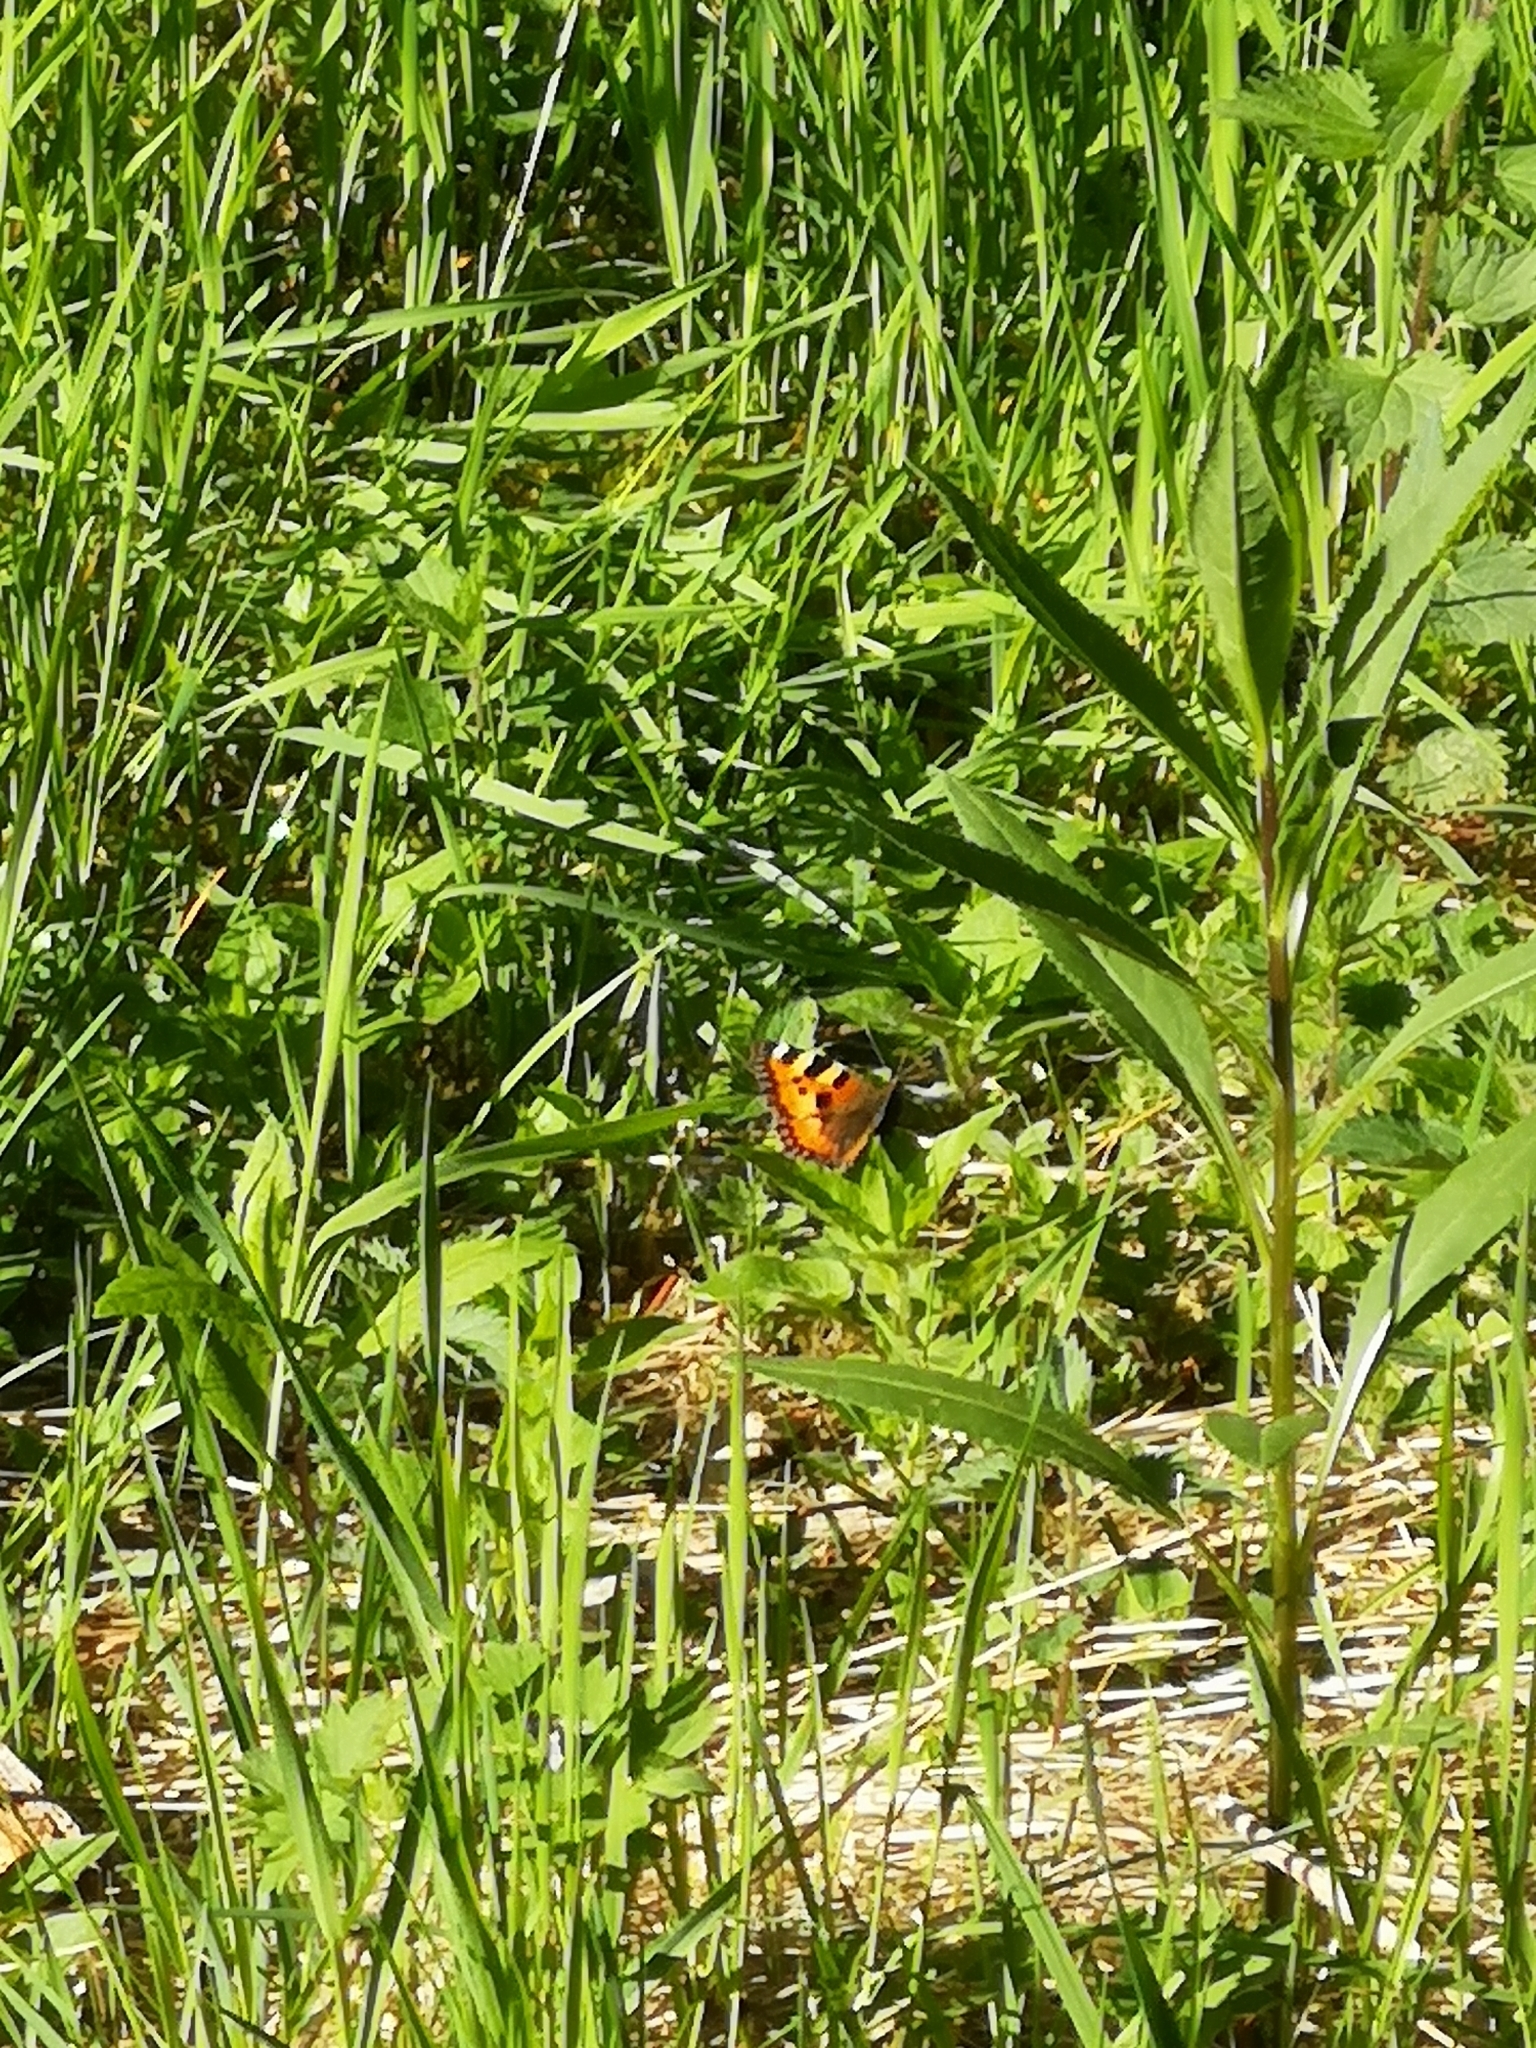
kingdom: Animalia
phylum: Arthropoda
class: Insecta
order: Lepidoptera
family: Nymphalidae
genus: Aglais
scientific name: Aglais urticae
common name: Small tortoiseshell
